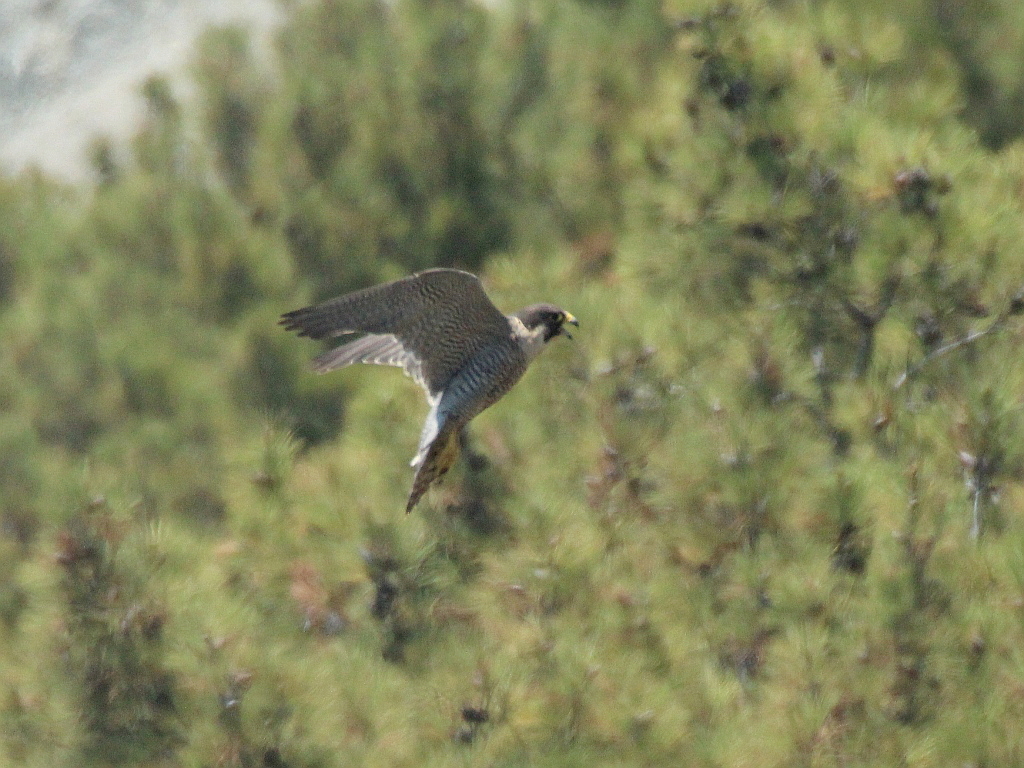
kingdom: Animalia
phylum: Chordata
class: Aves
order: Falconiformes
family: Falconidae
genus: Falco
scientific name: Falco peregrinus
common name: Peregrine falcon
